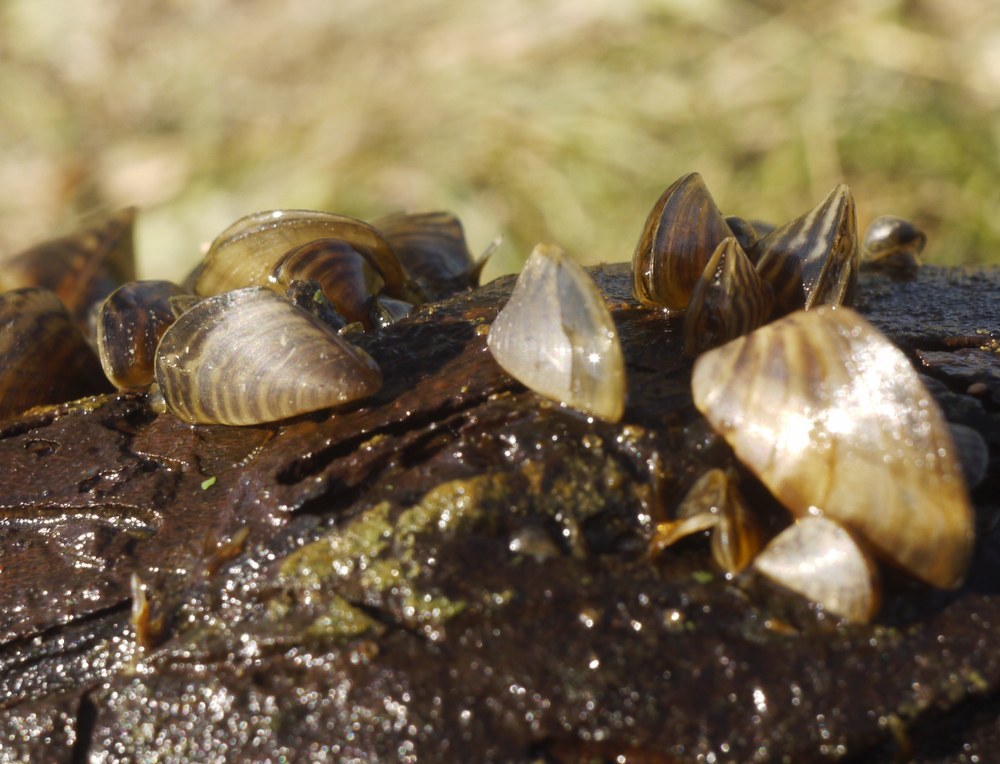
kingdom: Animalia
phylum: Mollusca
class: Bivalvia
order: Myida
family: Dreissenidae
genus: Dreissena
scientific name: Dreissena polymorpha
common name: Zebra mussel
